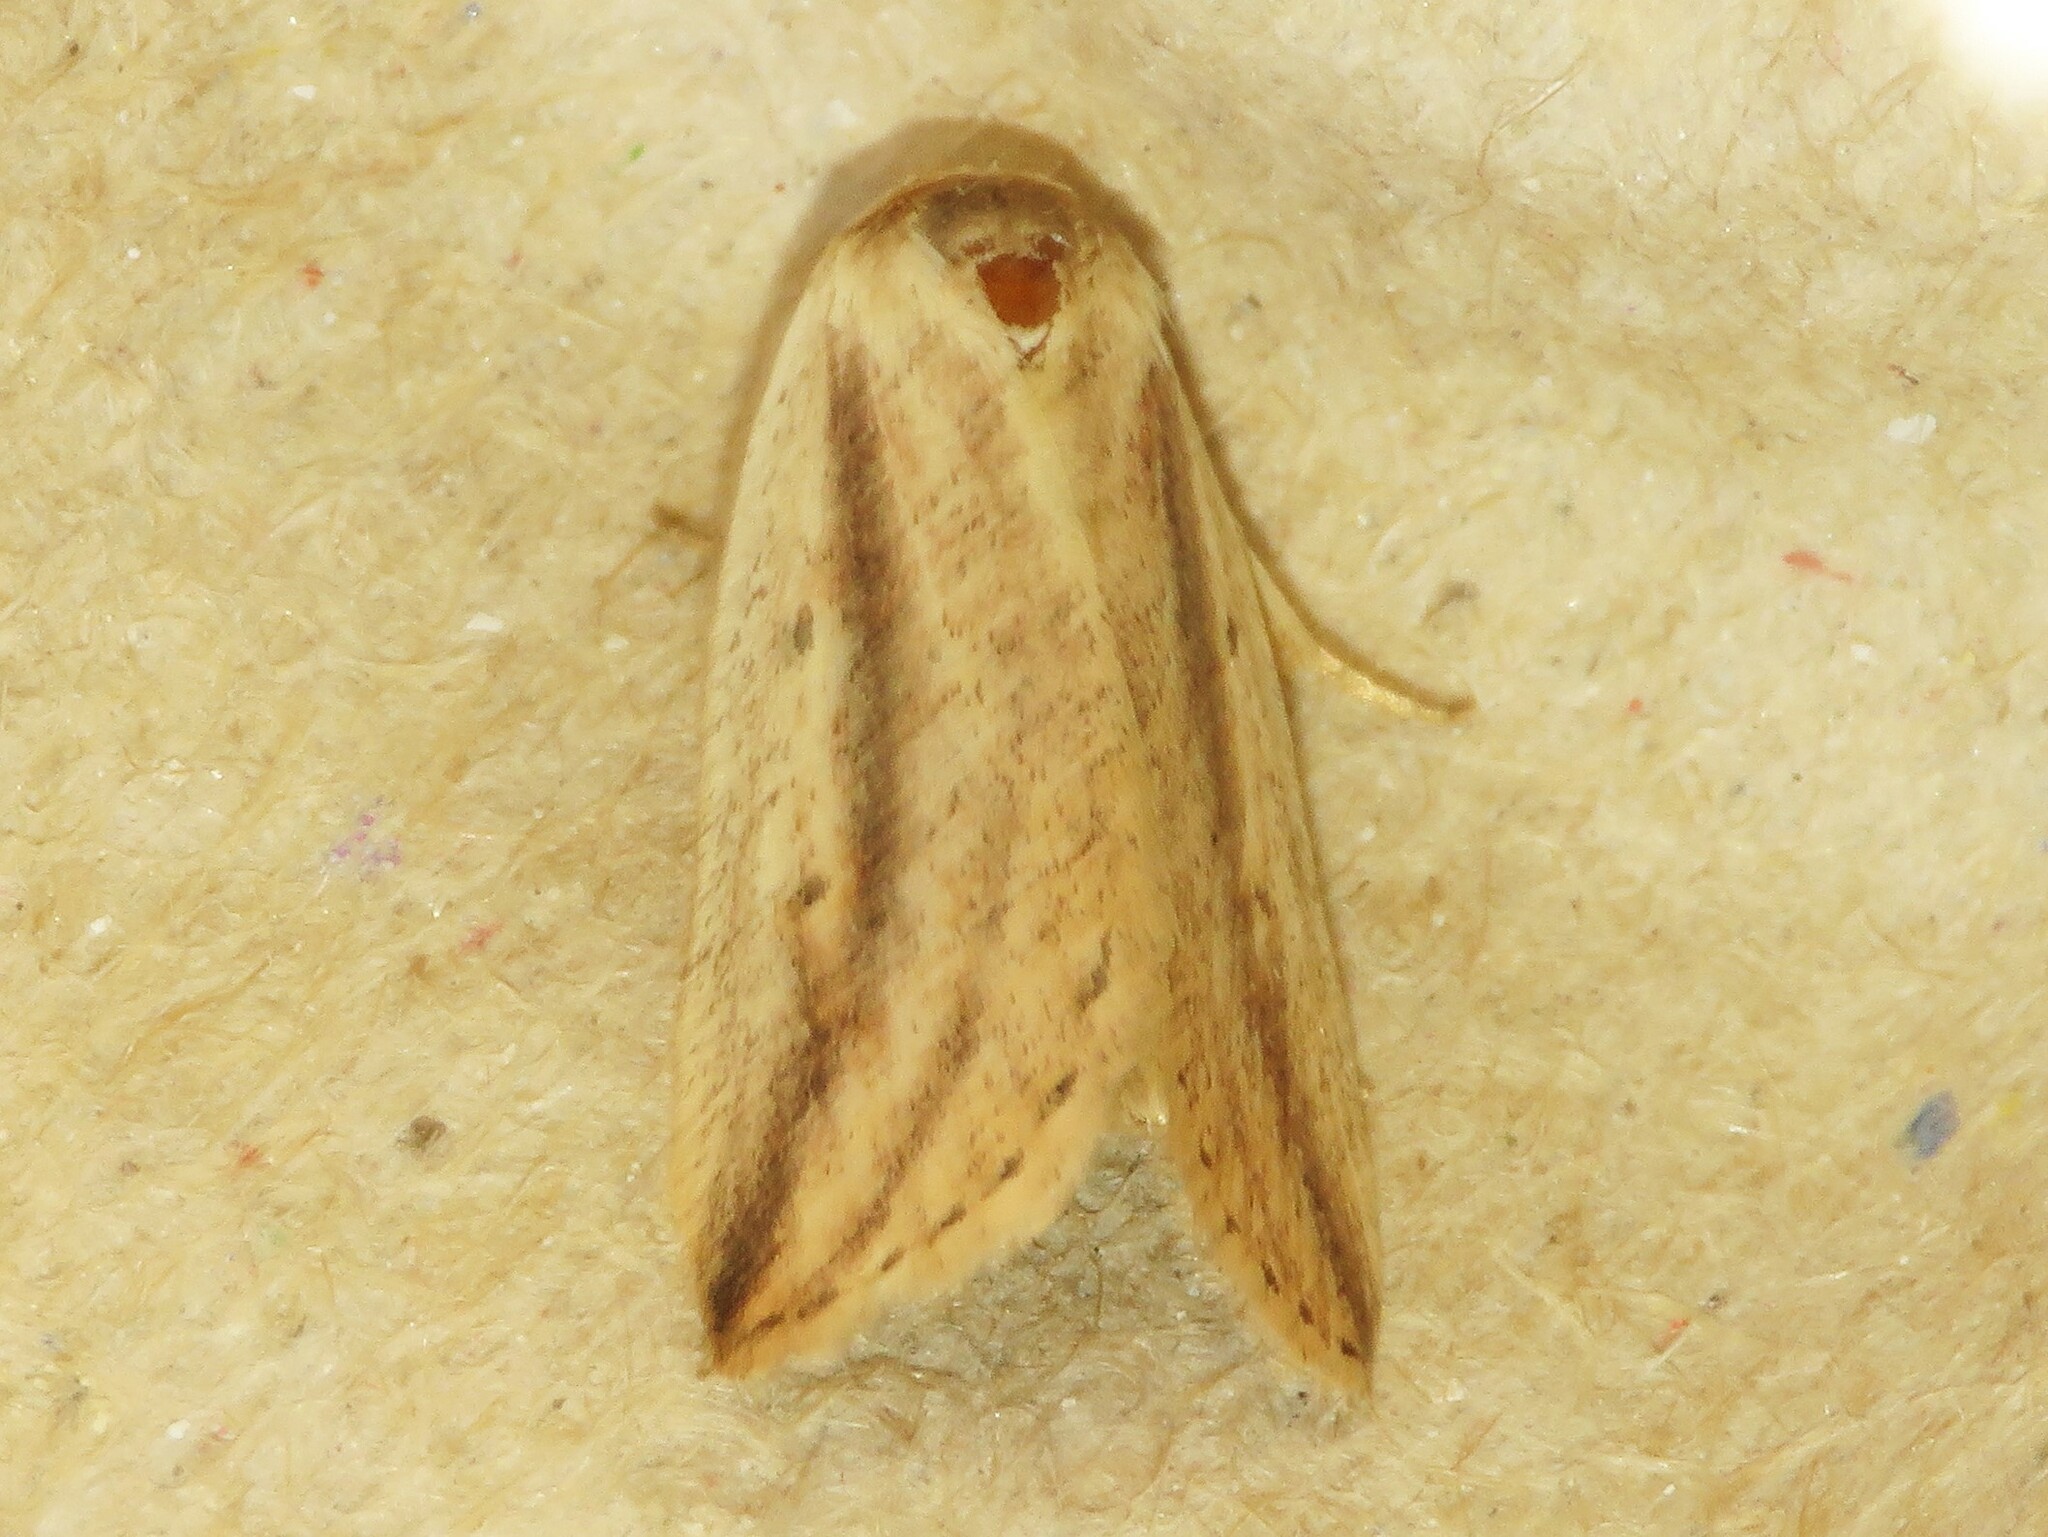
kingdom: Animalia
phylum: Arthropoda
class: Insecta
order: Lepidoptera
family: Noctuidae
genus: Amolita
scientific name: Amolita fessa
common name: Feeble grass moth
